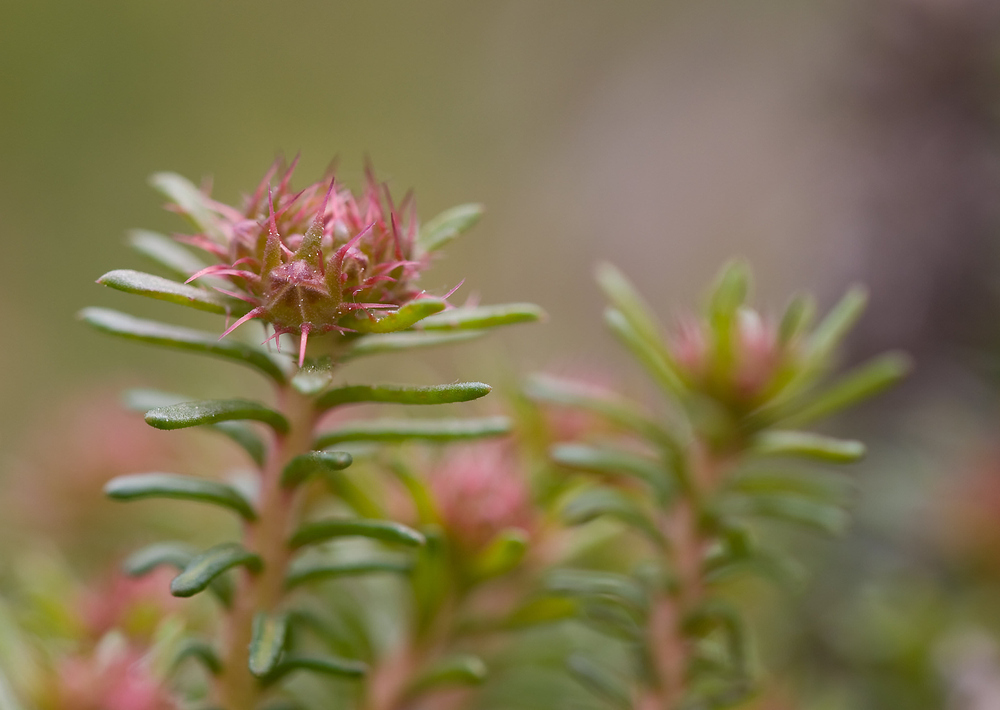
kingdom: Plantae
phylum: Tracheophyta
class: Magnoliopsida
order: Ericales
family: Primulaceae
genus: Coris
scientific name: Coris monspeliensis
